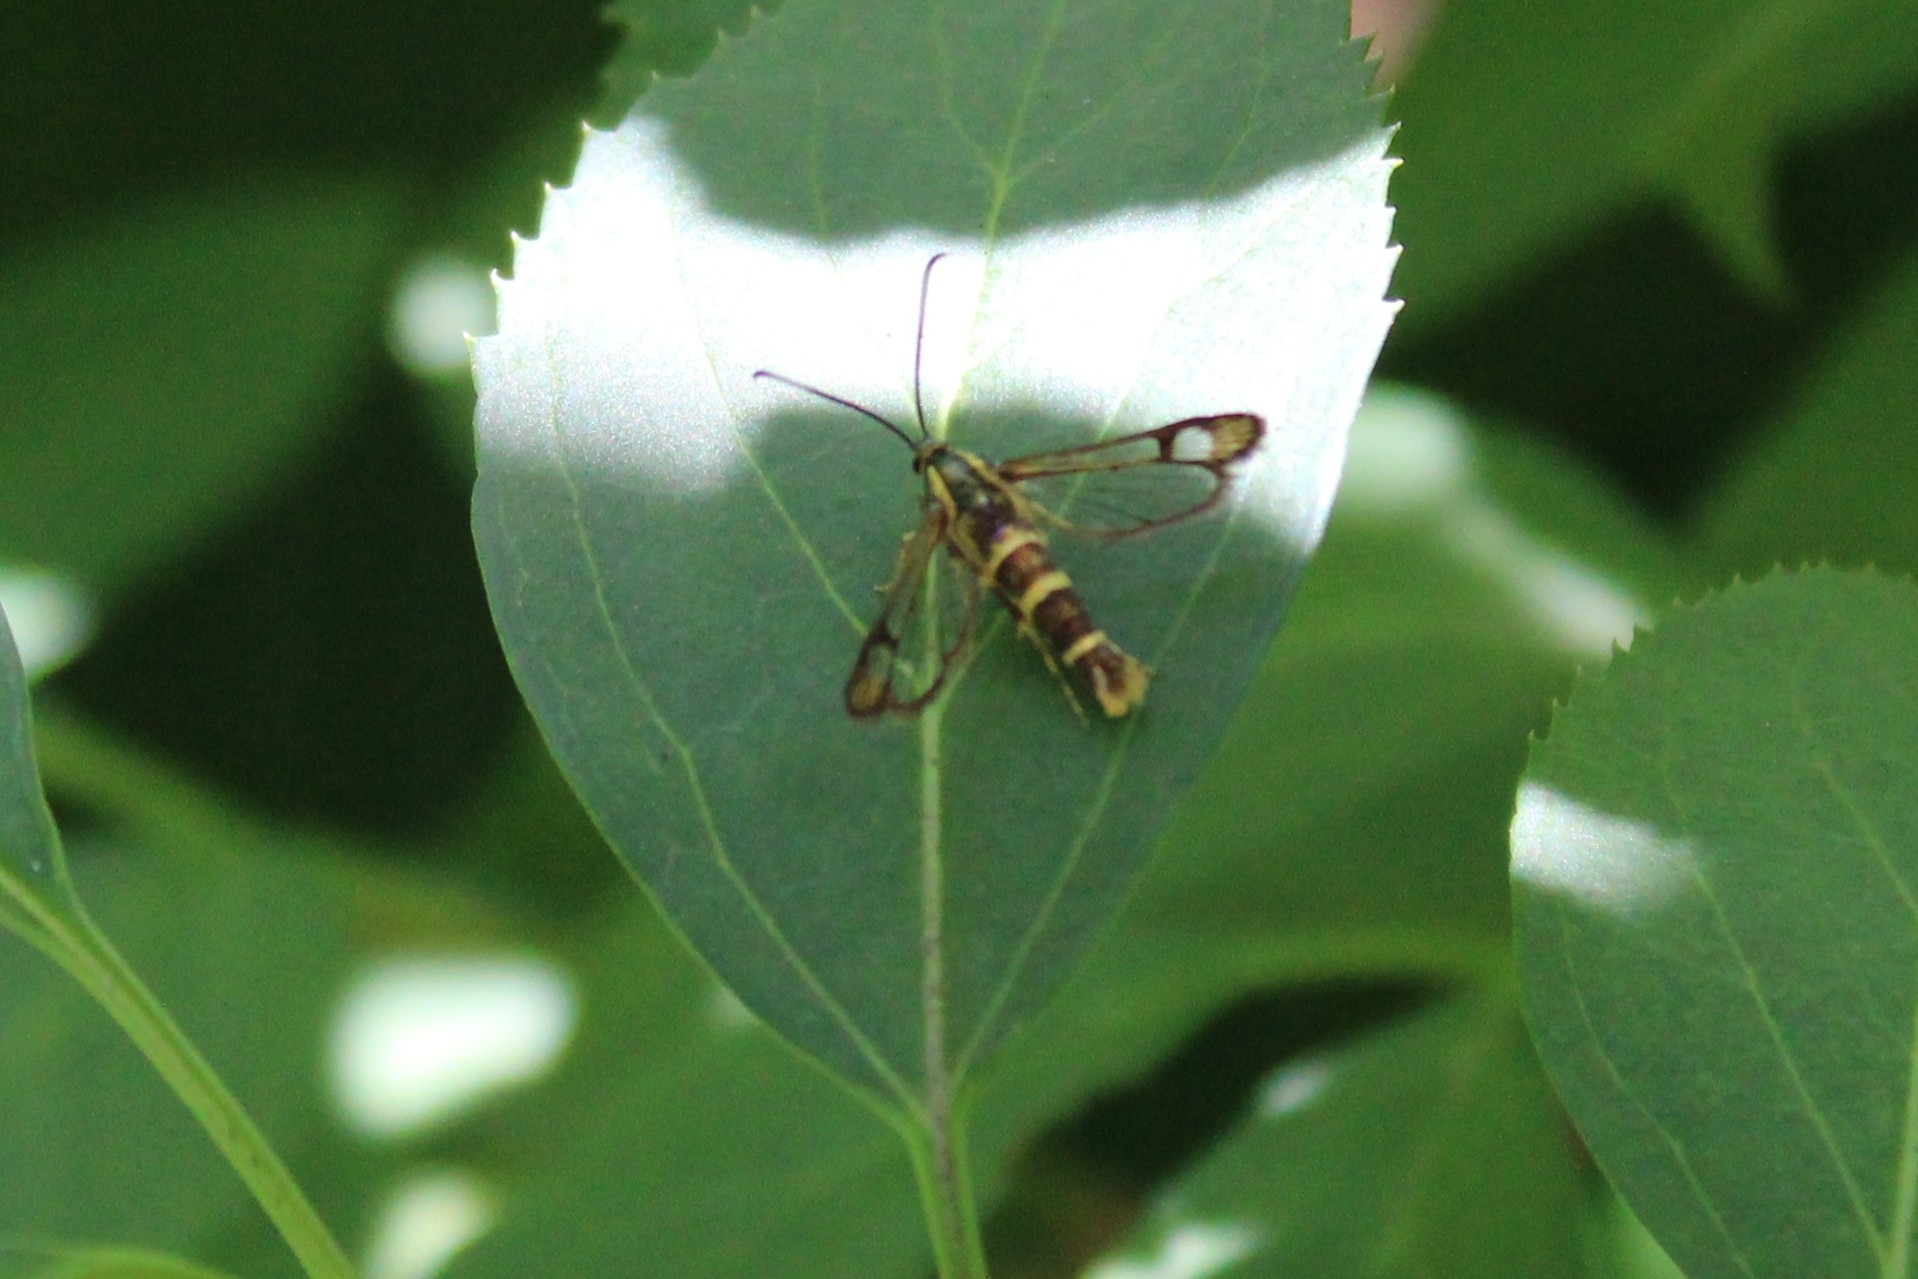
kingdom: Animalia
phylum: Arthropoda
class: Insecta
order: Lepidoptera
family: Sesiidae
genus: Carmenta
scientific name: Carmenta bassiformis
